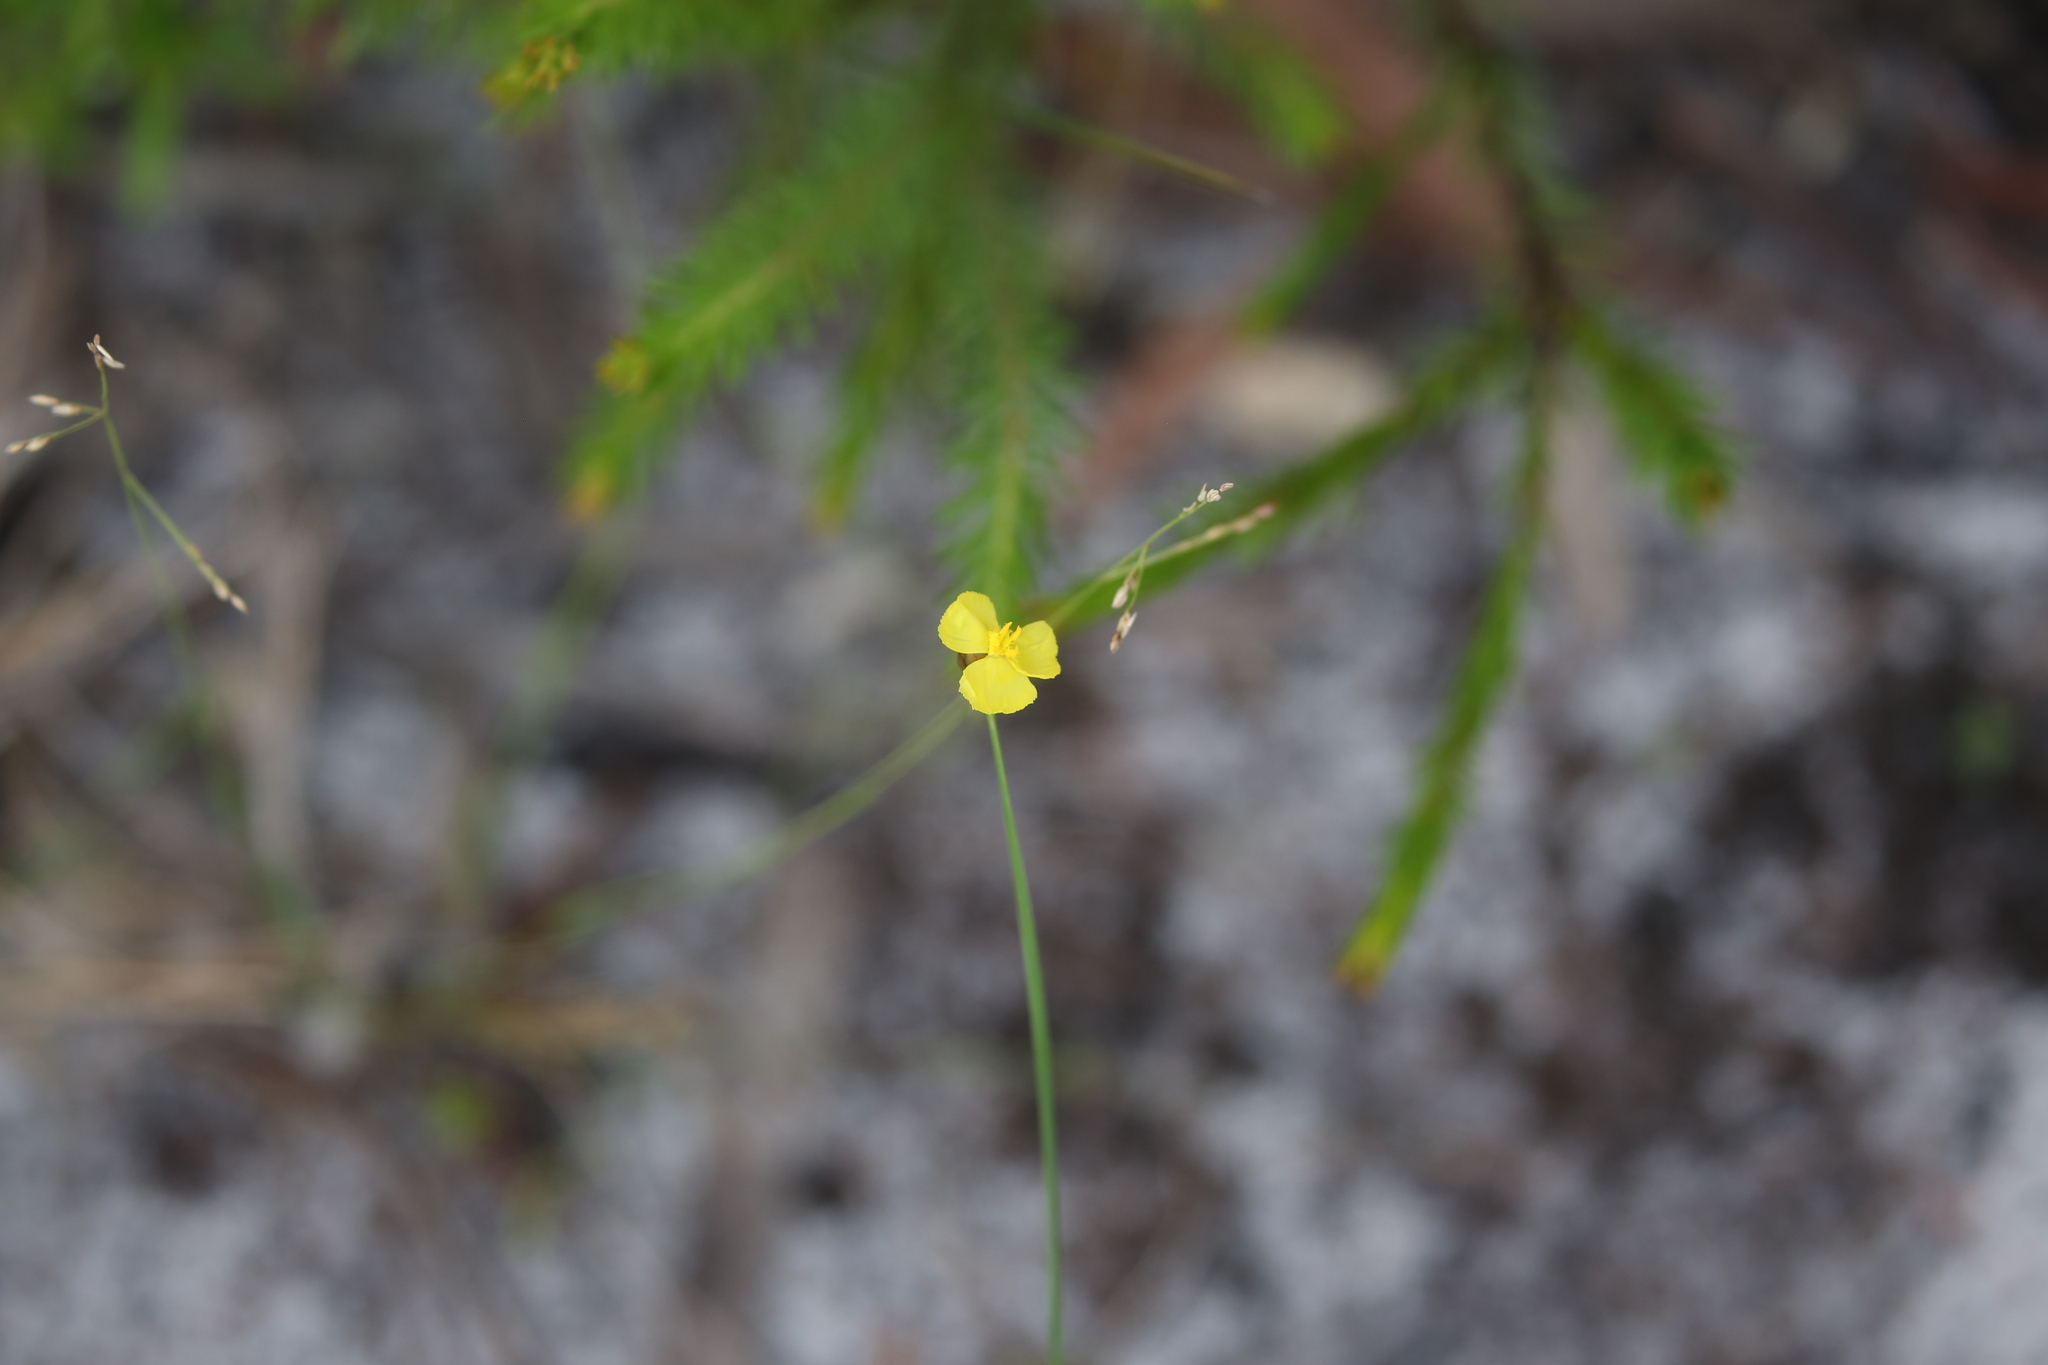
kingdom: Plantae
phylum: Tracheophyta
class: Liliopsida
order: Poales
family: Xyridaceae
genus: Xyris
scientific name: Xyris complanata
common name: Hawai'i yelloweyed grass
